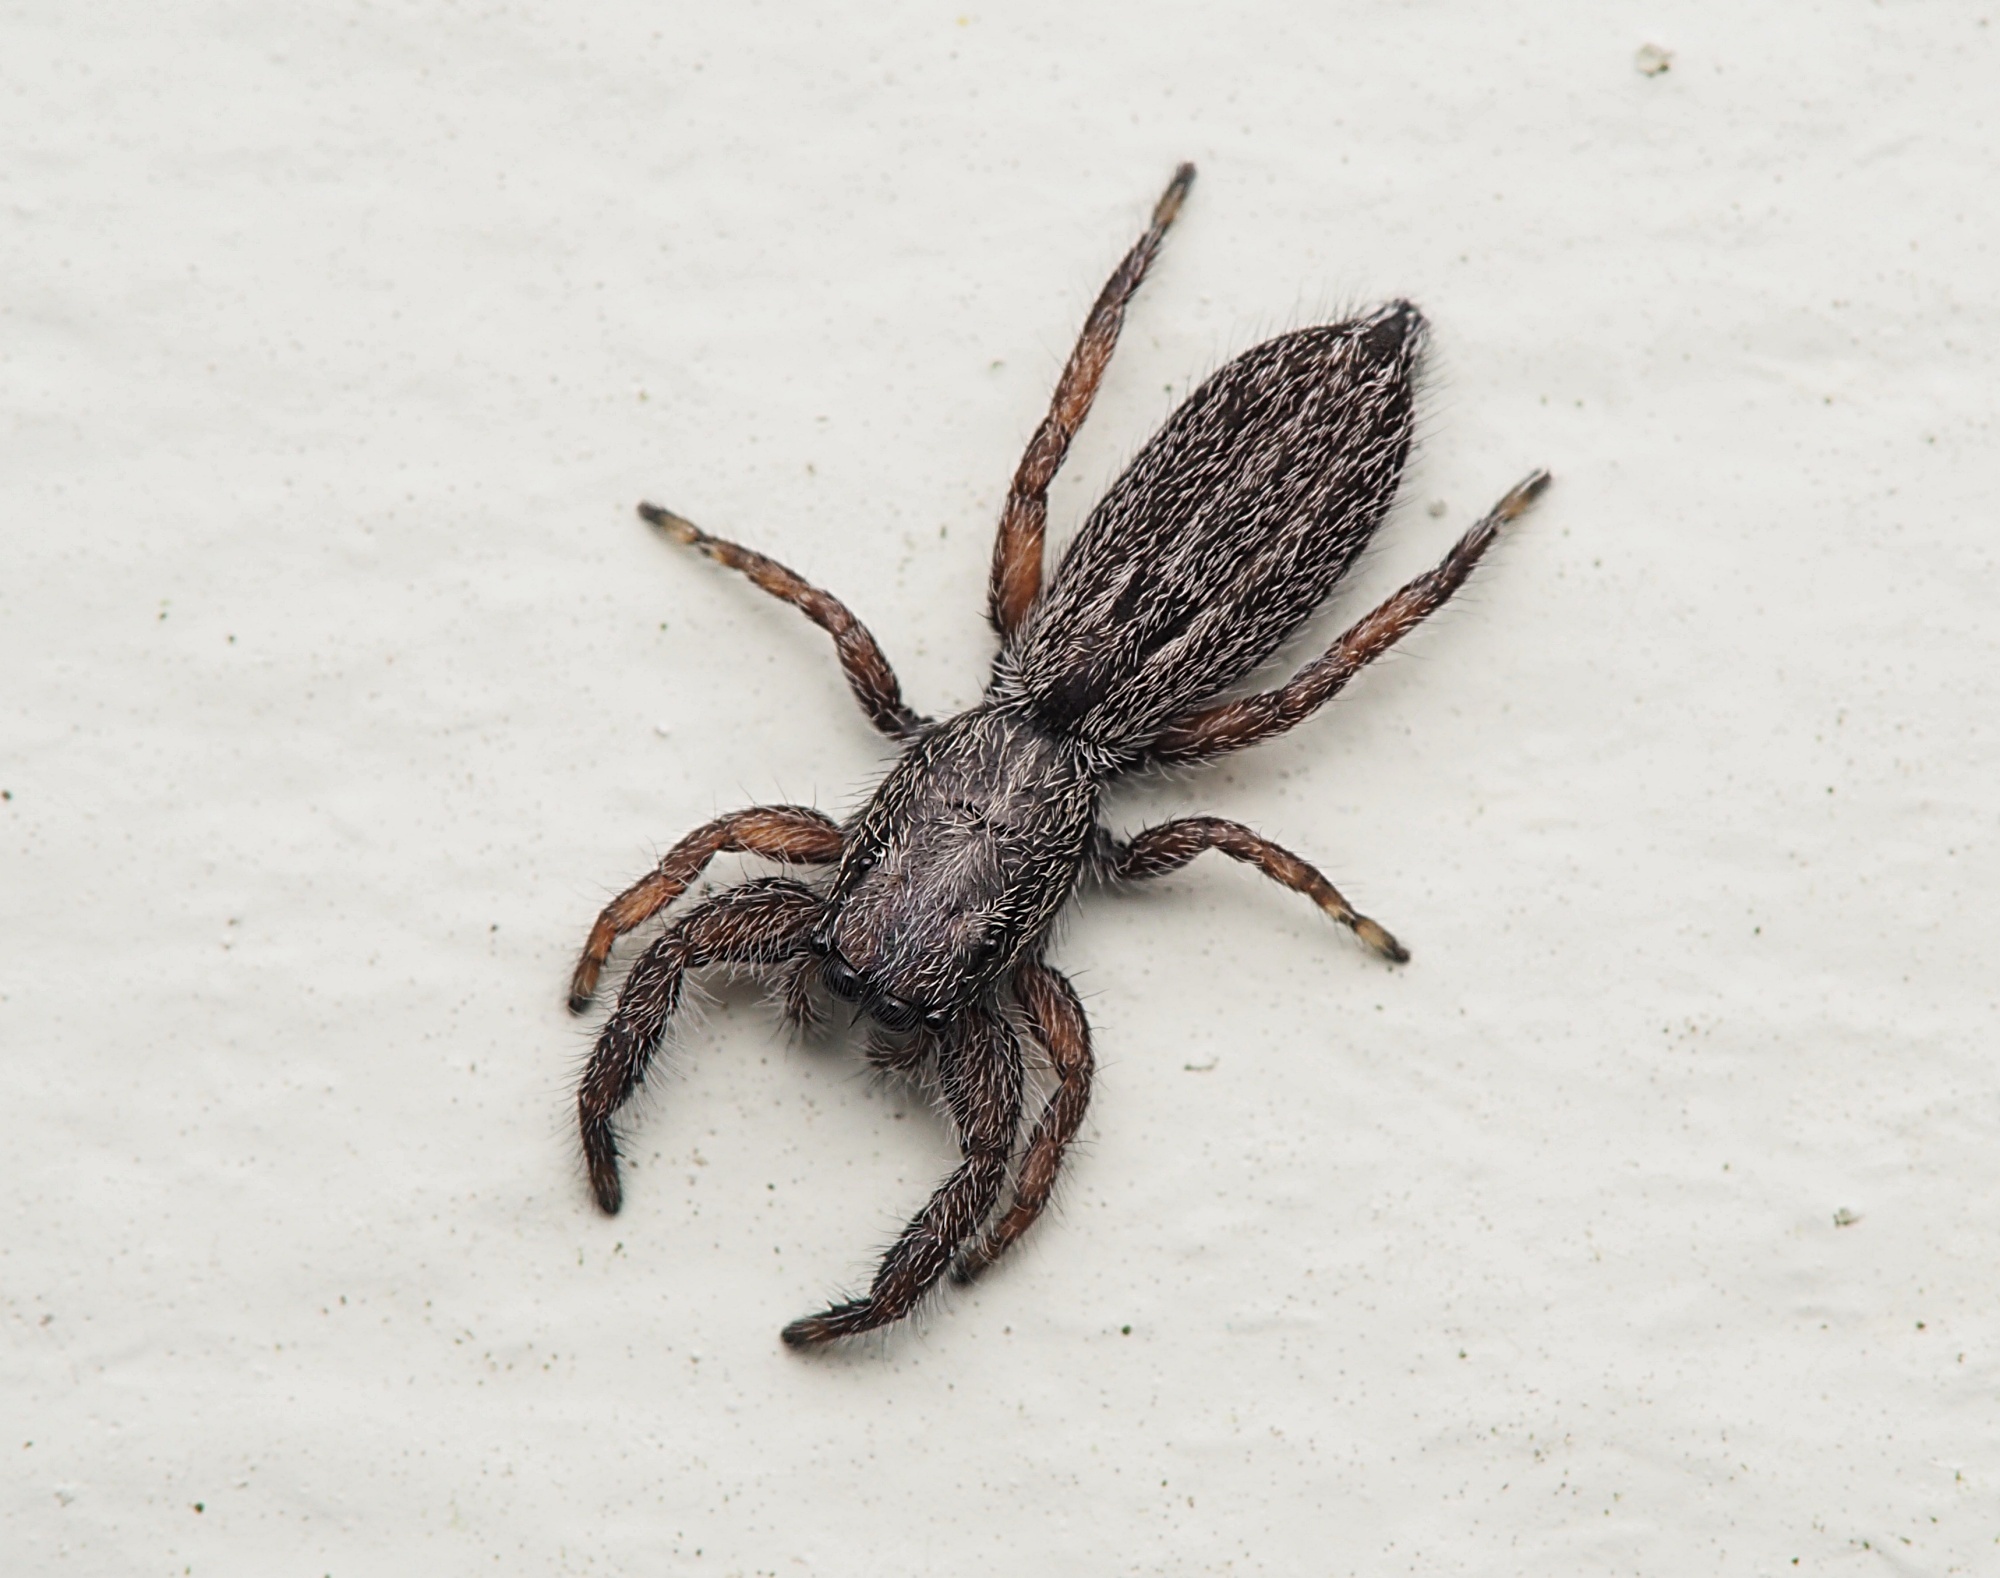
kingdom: Animalia
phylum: Arthropoda
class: Arachnida
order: Araneae
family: Salticidae
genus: Holoplatys
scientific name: Holoplatys apressus
